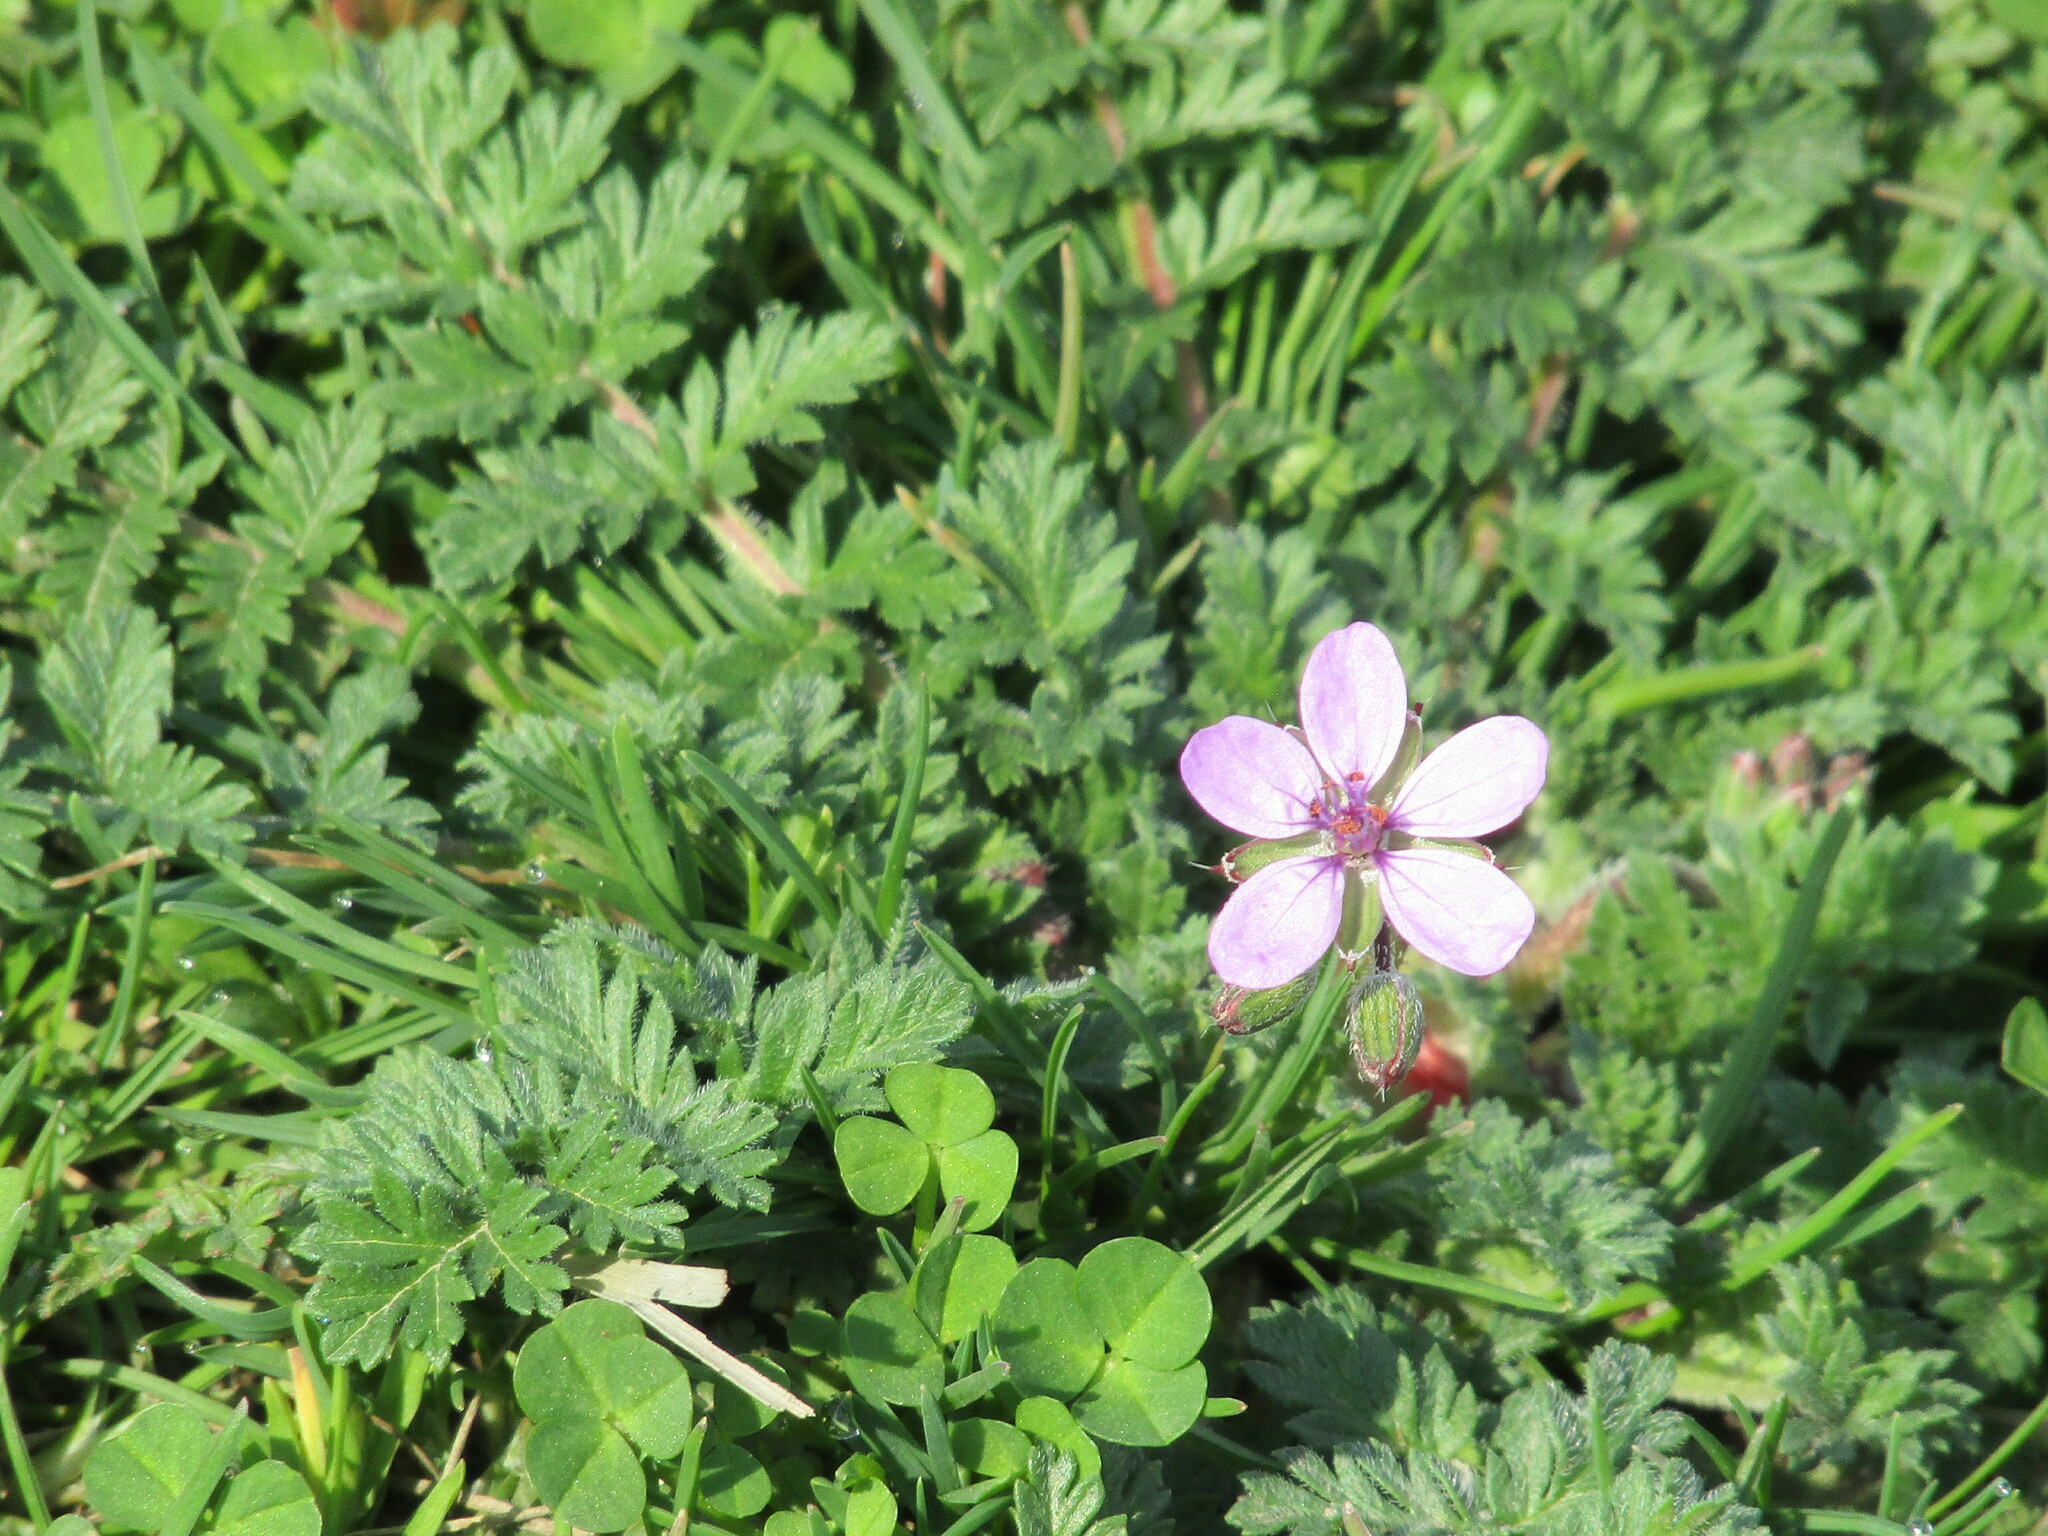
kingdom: Plantae
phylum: Tracheophyta
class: Magnoliopsida
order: Geraniales
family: Geraniaceae
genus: Erodium
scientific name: Erodium cicutarium
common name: Common stork's-bill
